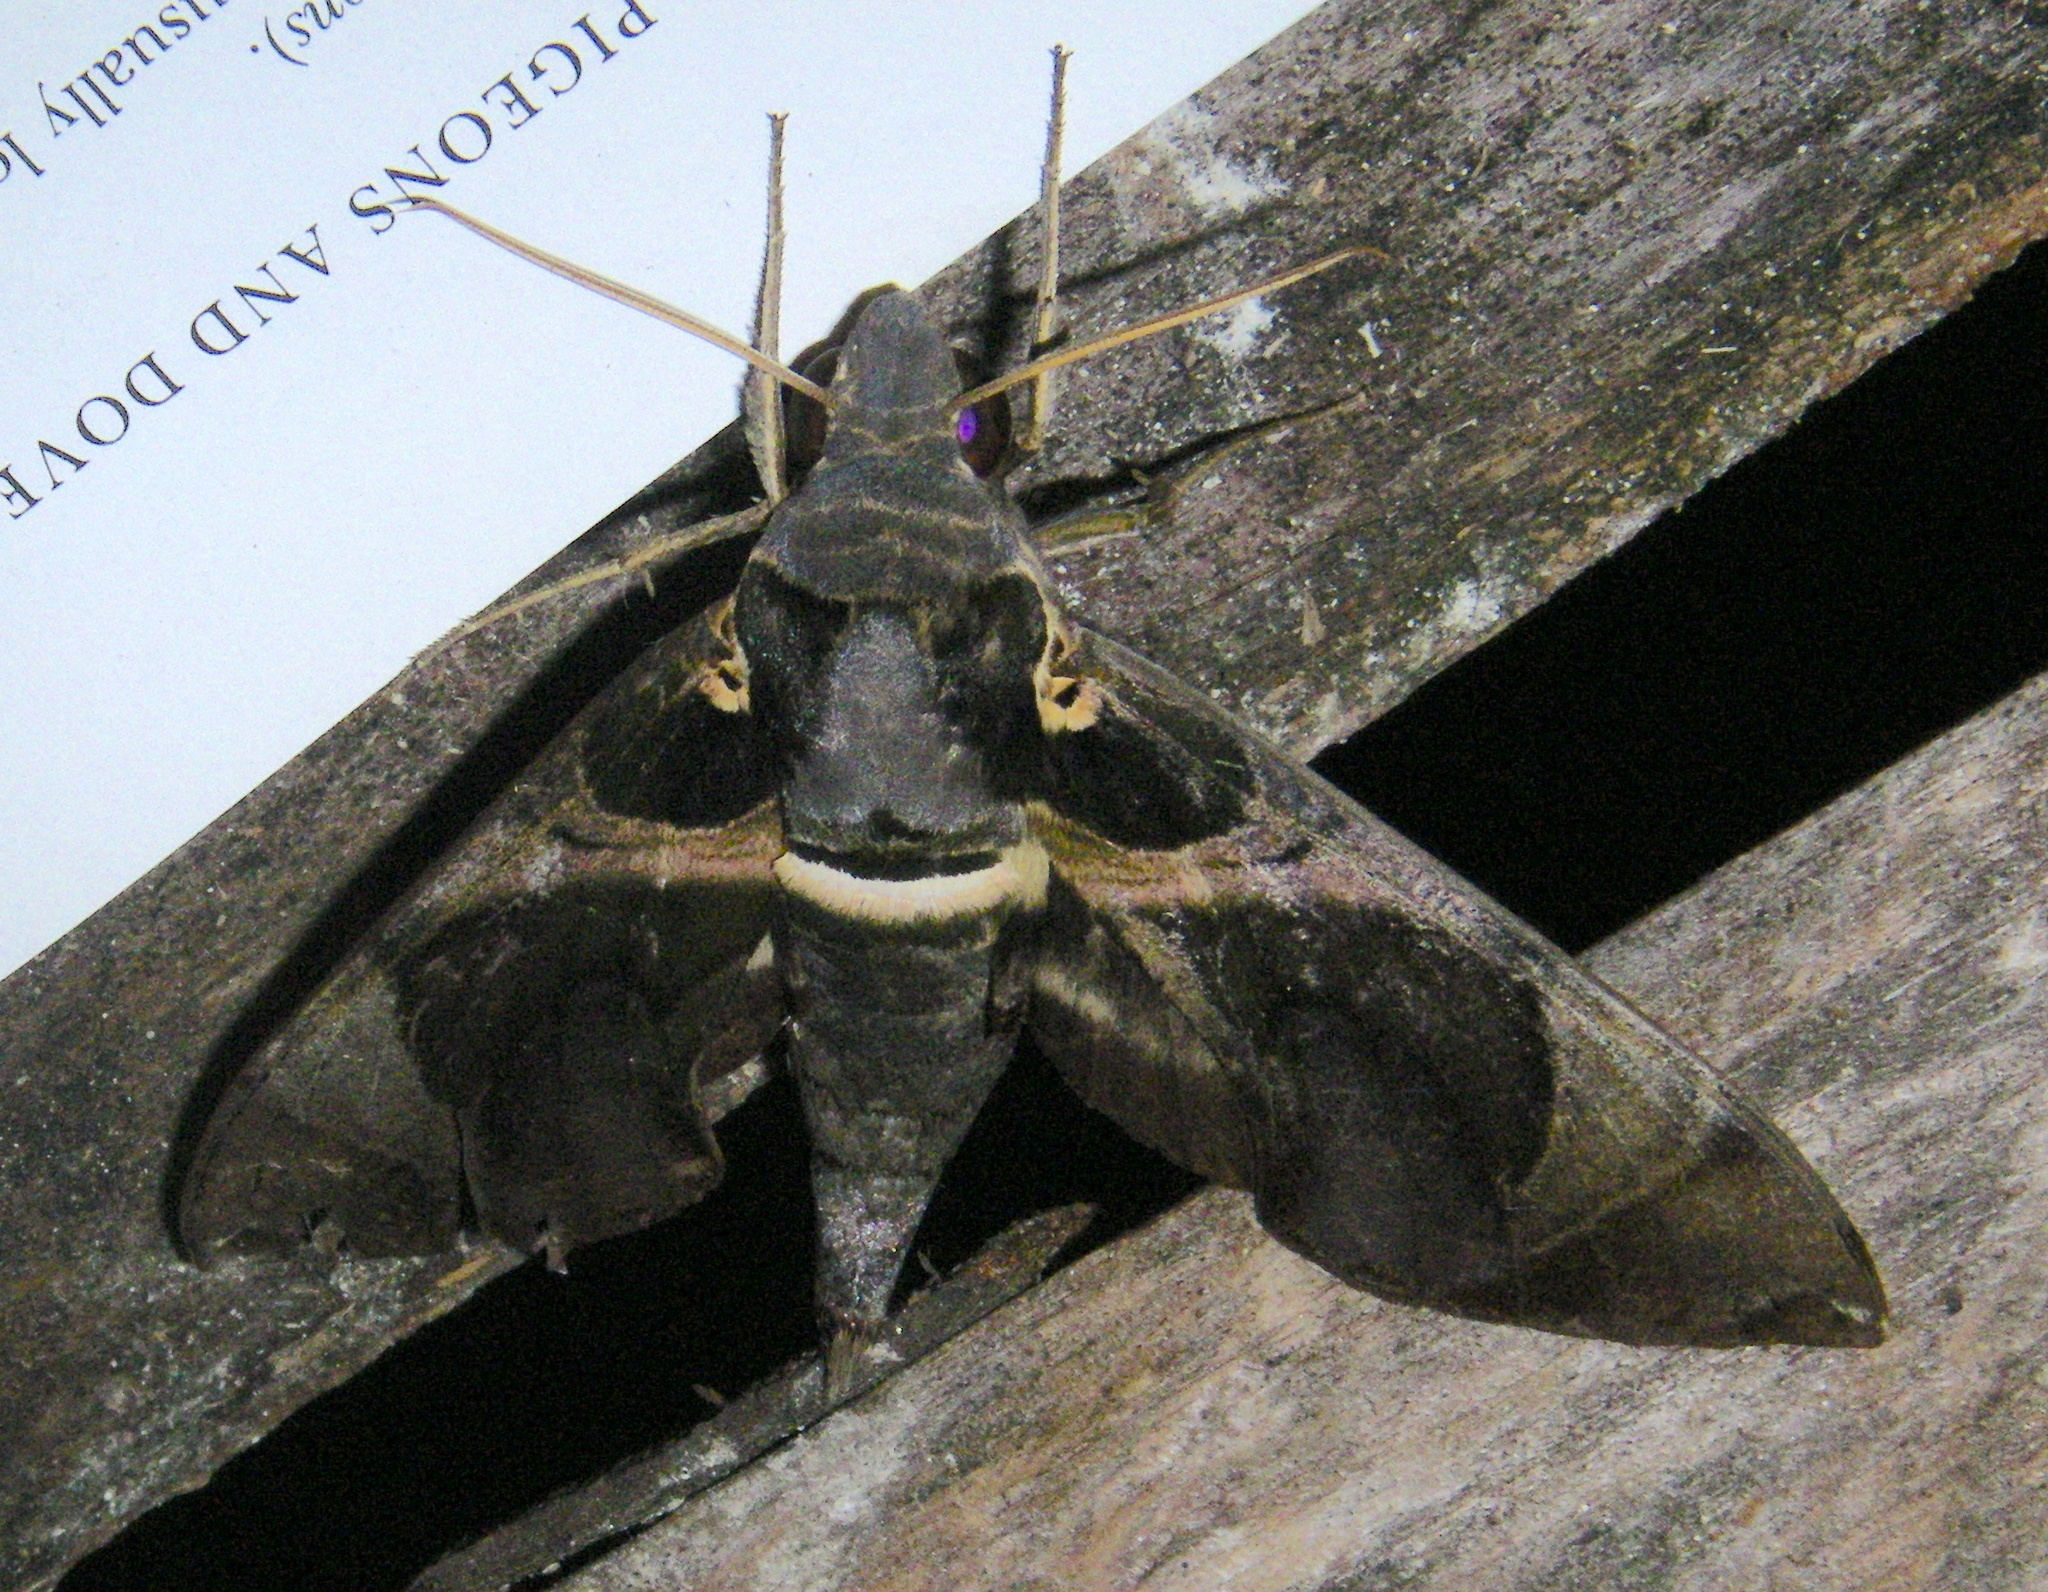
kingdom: Animalia
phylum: Arthropoda
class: Insecta
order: Lepidoptera
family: Sphingidae
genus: Daphnis
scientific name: Daphnis moorei
